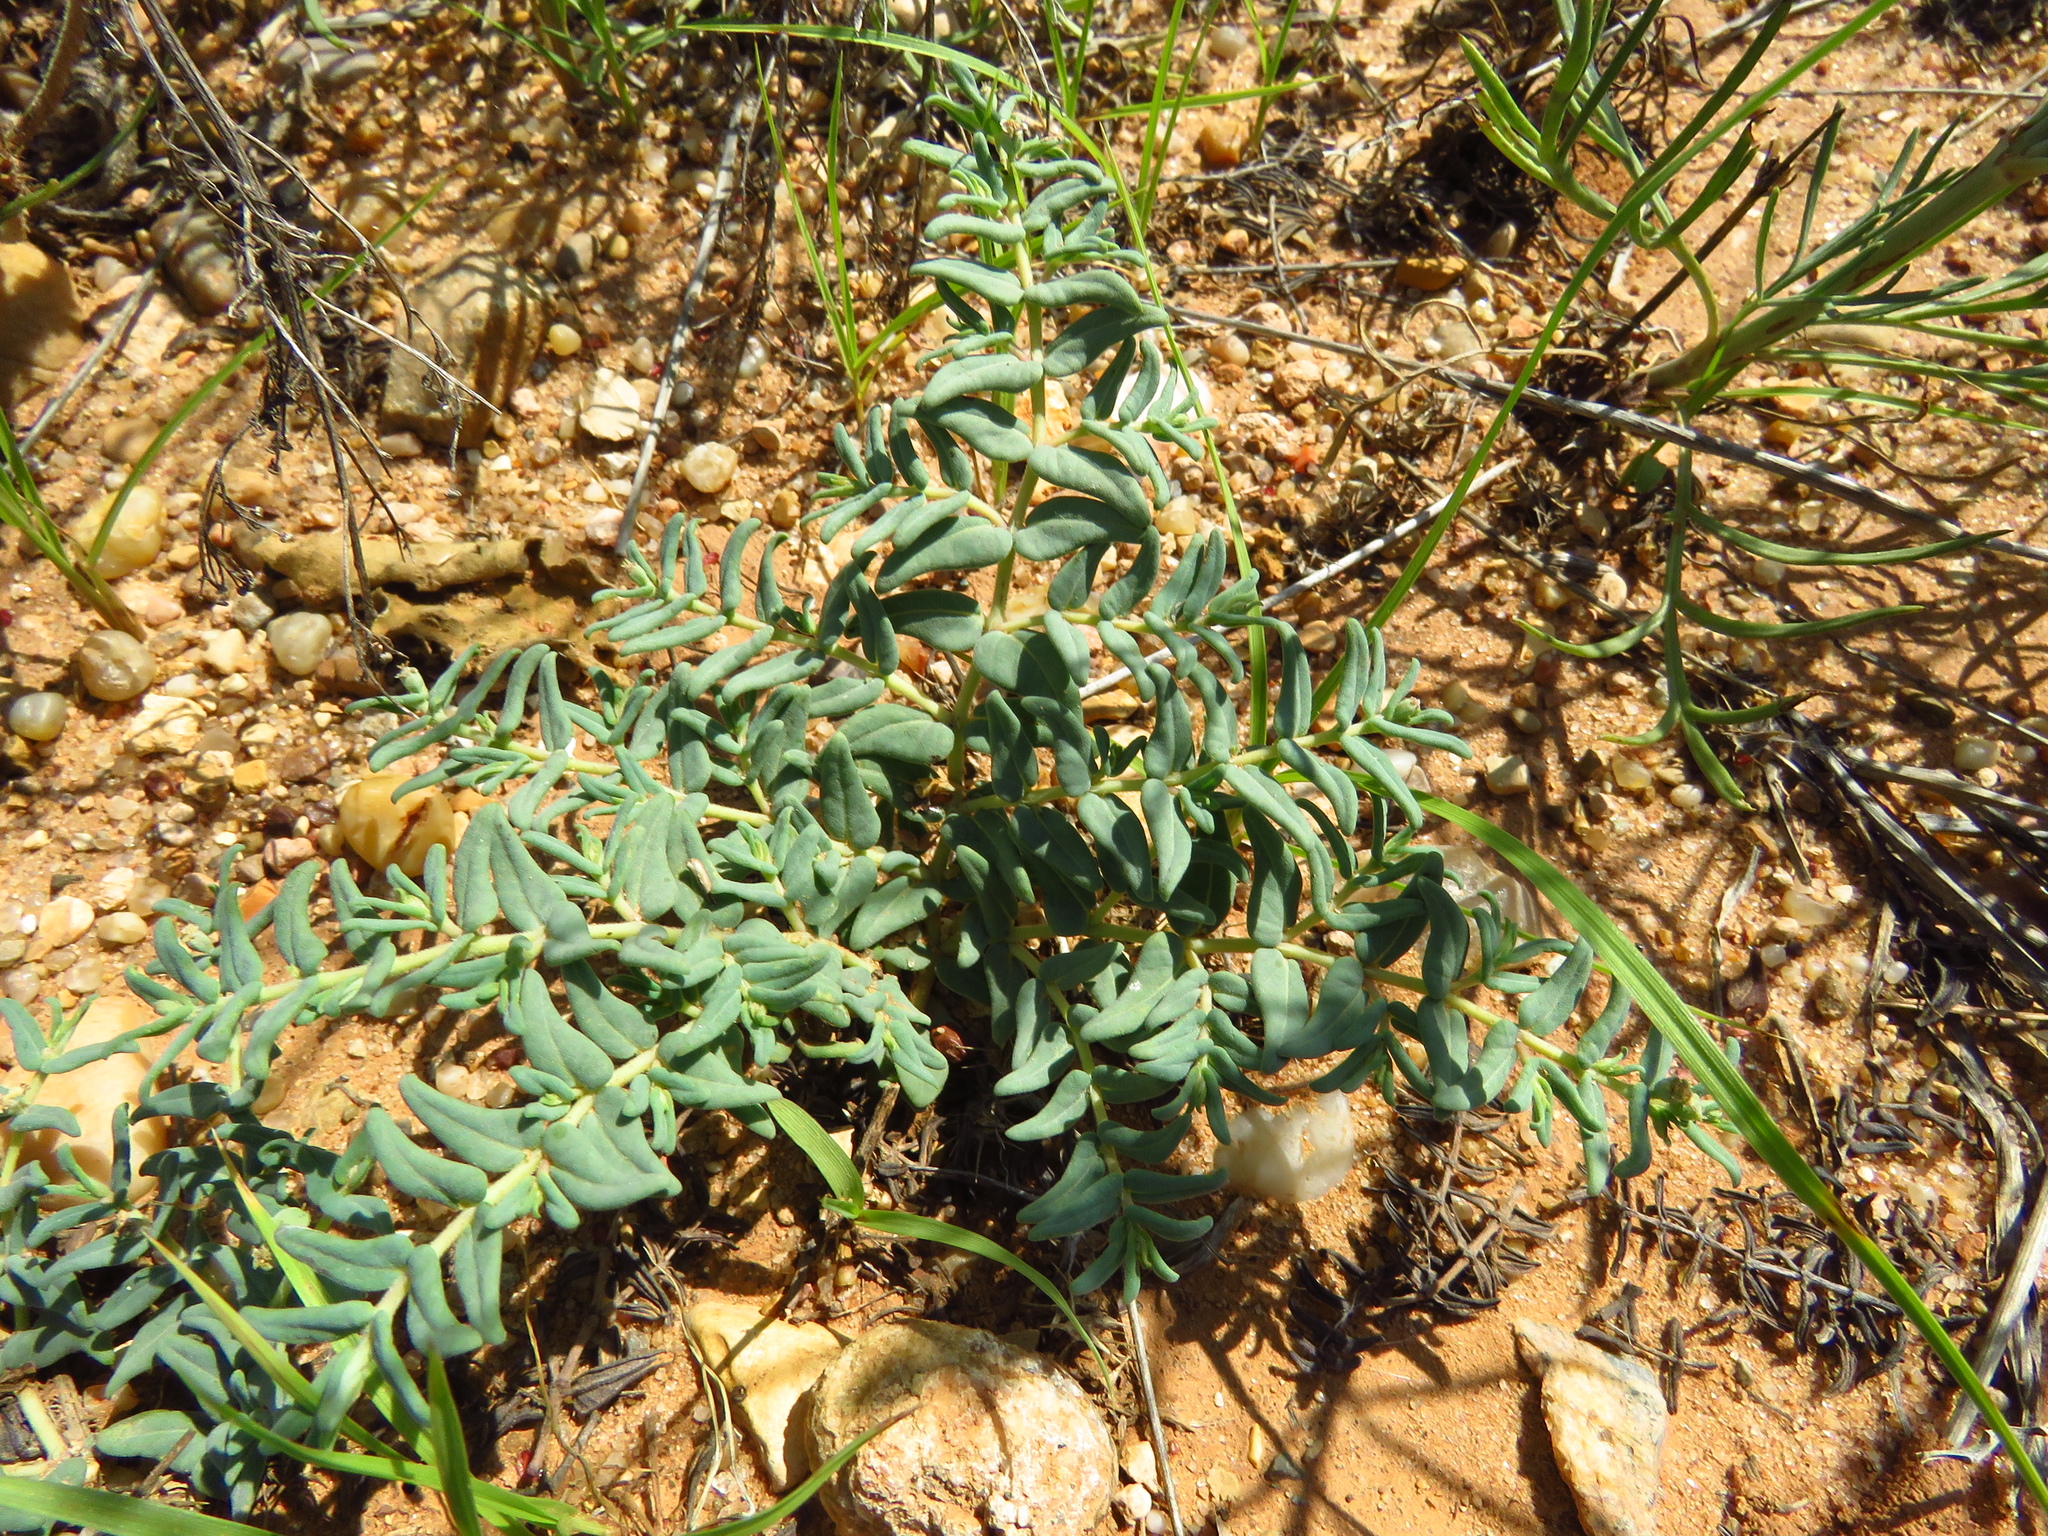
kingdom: Plantae
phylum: Tracheophyta
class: Magnoliopsida
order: Malpighiales
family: Euphorbiaceae
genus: Euphorbia
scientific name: Euphorbia lata
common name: Hoary euphorbia
